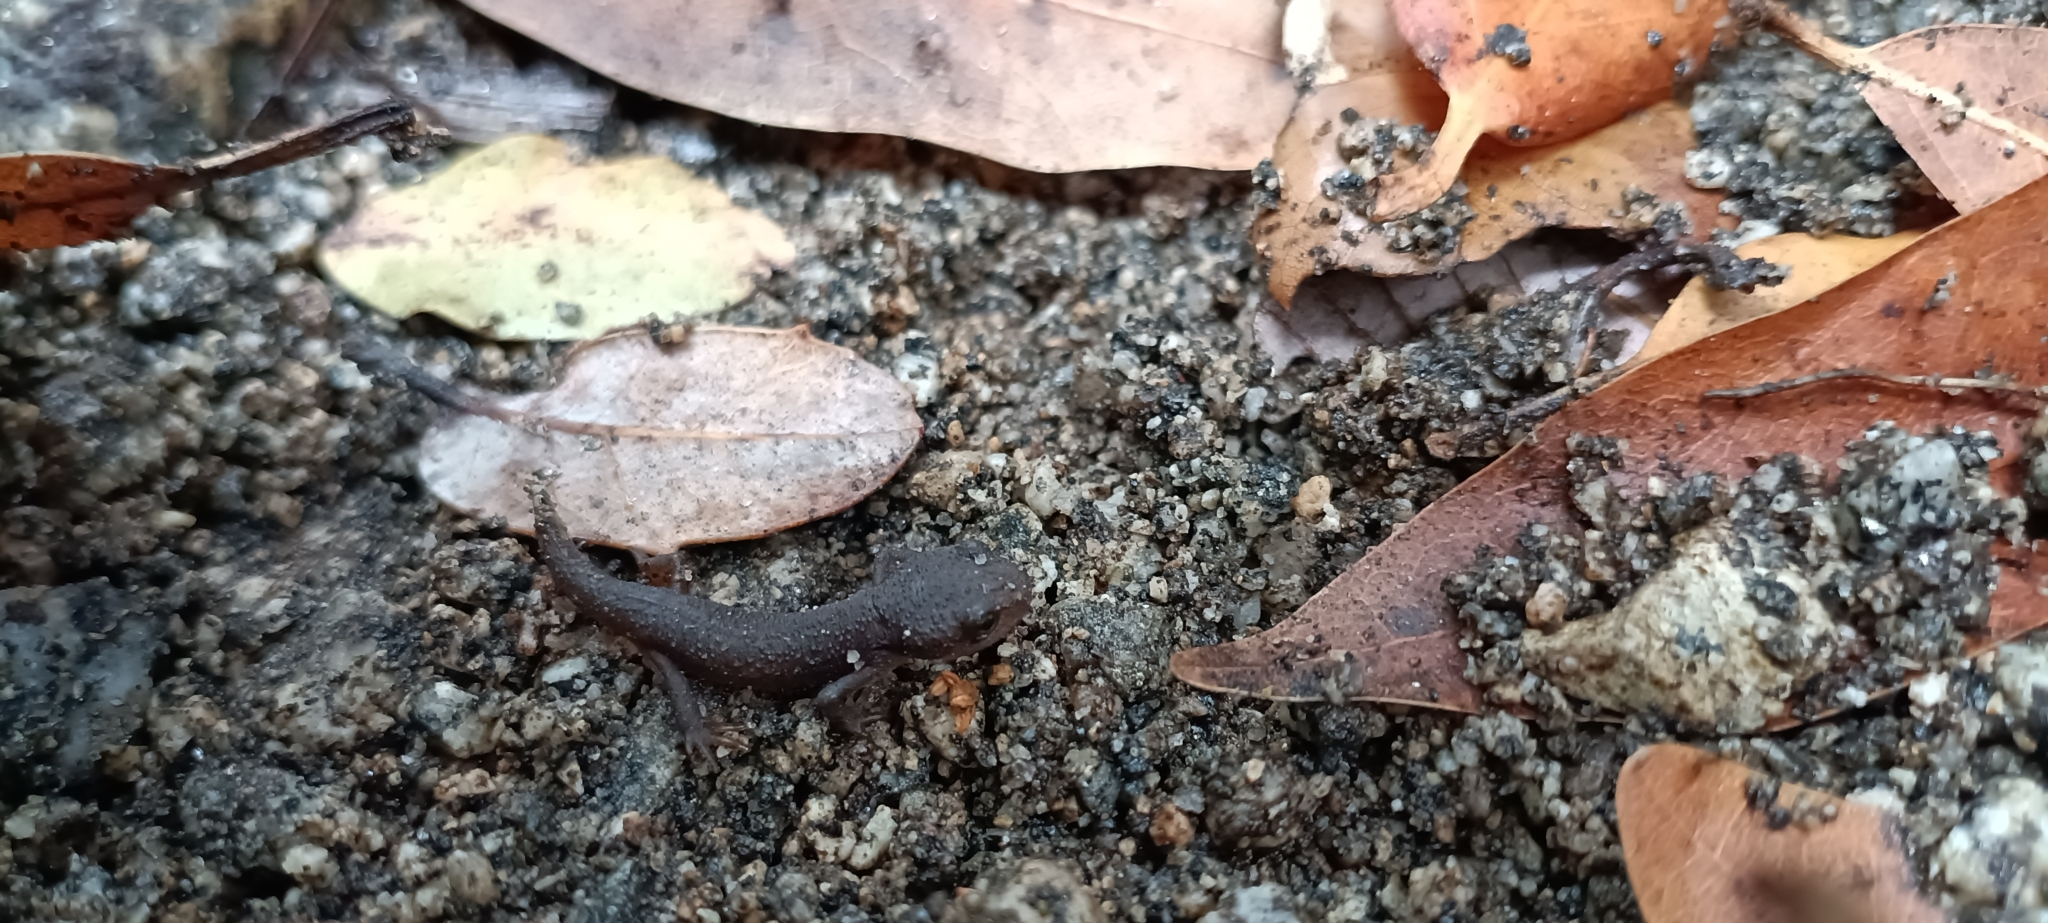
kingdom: Animalia
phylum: Chordata
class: Amphibia
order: Caudata
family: Salamandridae
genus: Taricha
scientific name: Taricha torosa
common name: California newt
